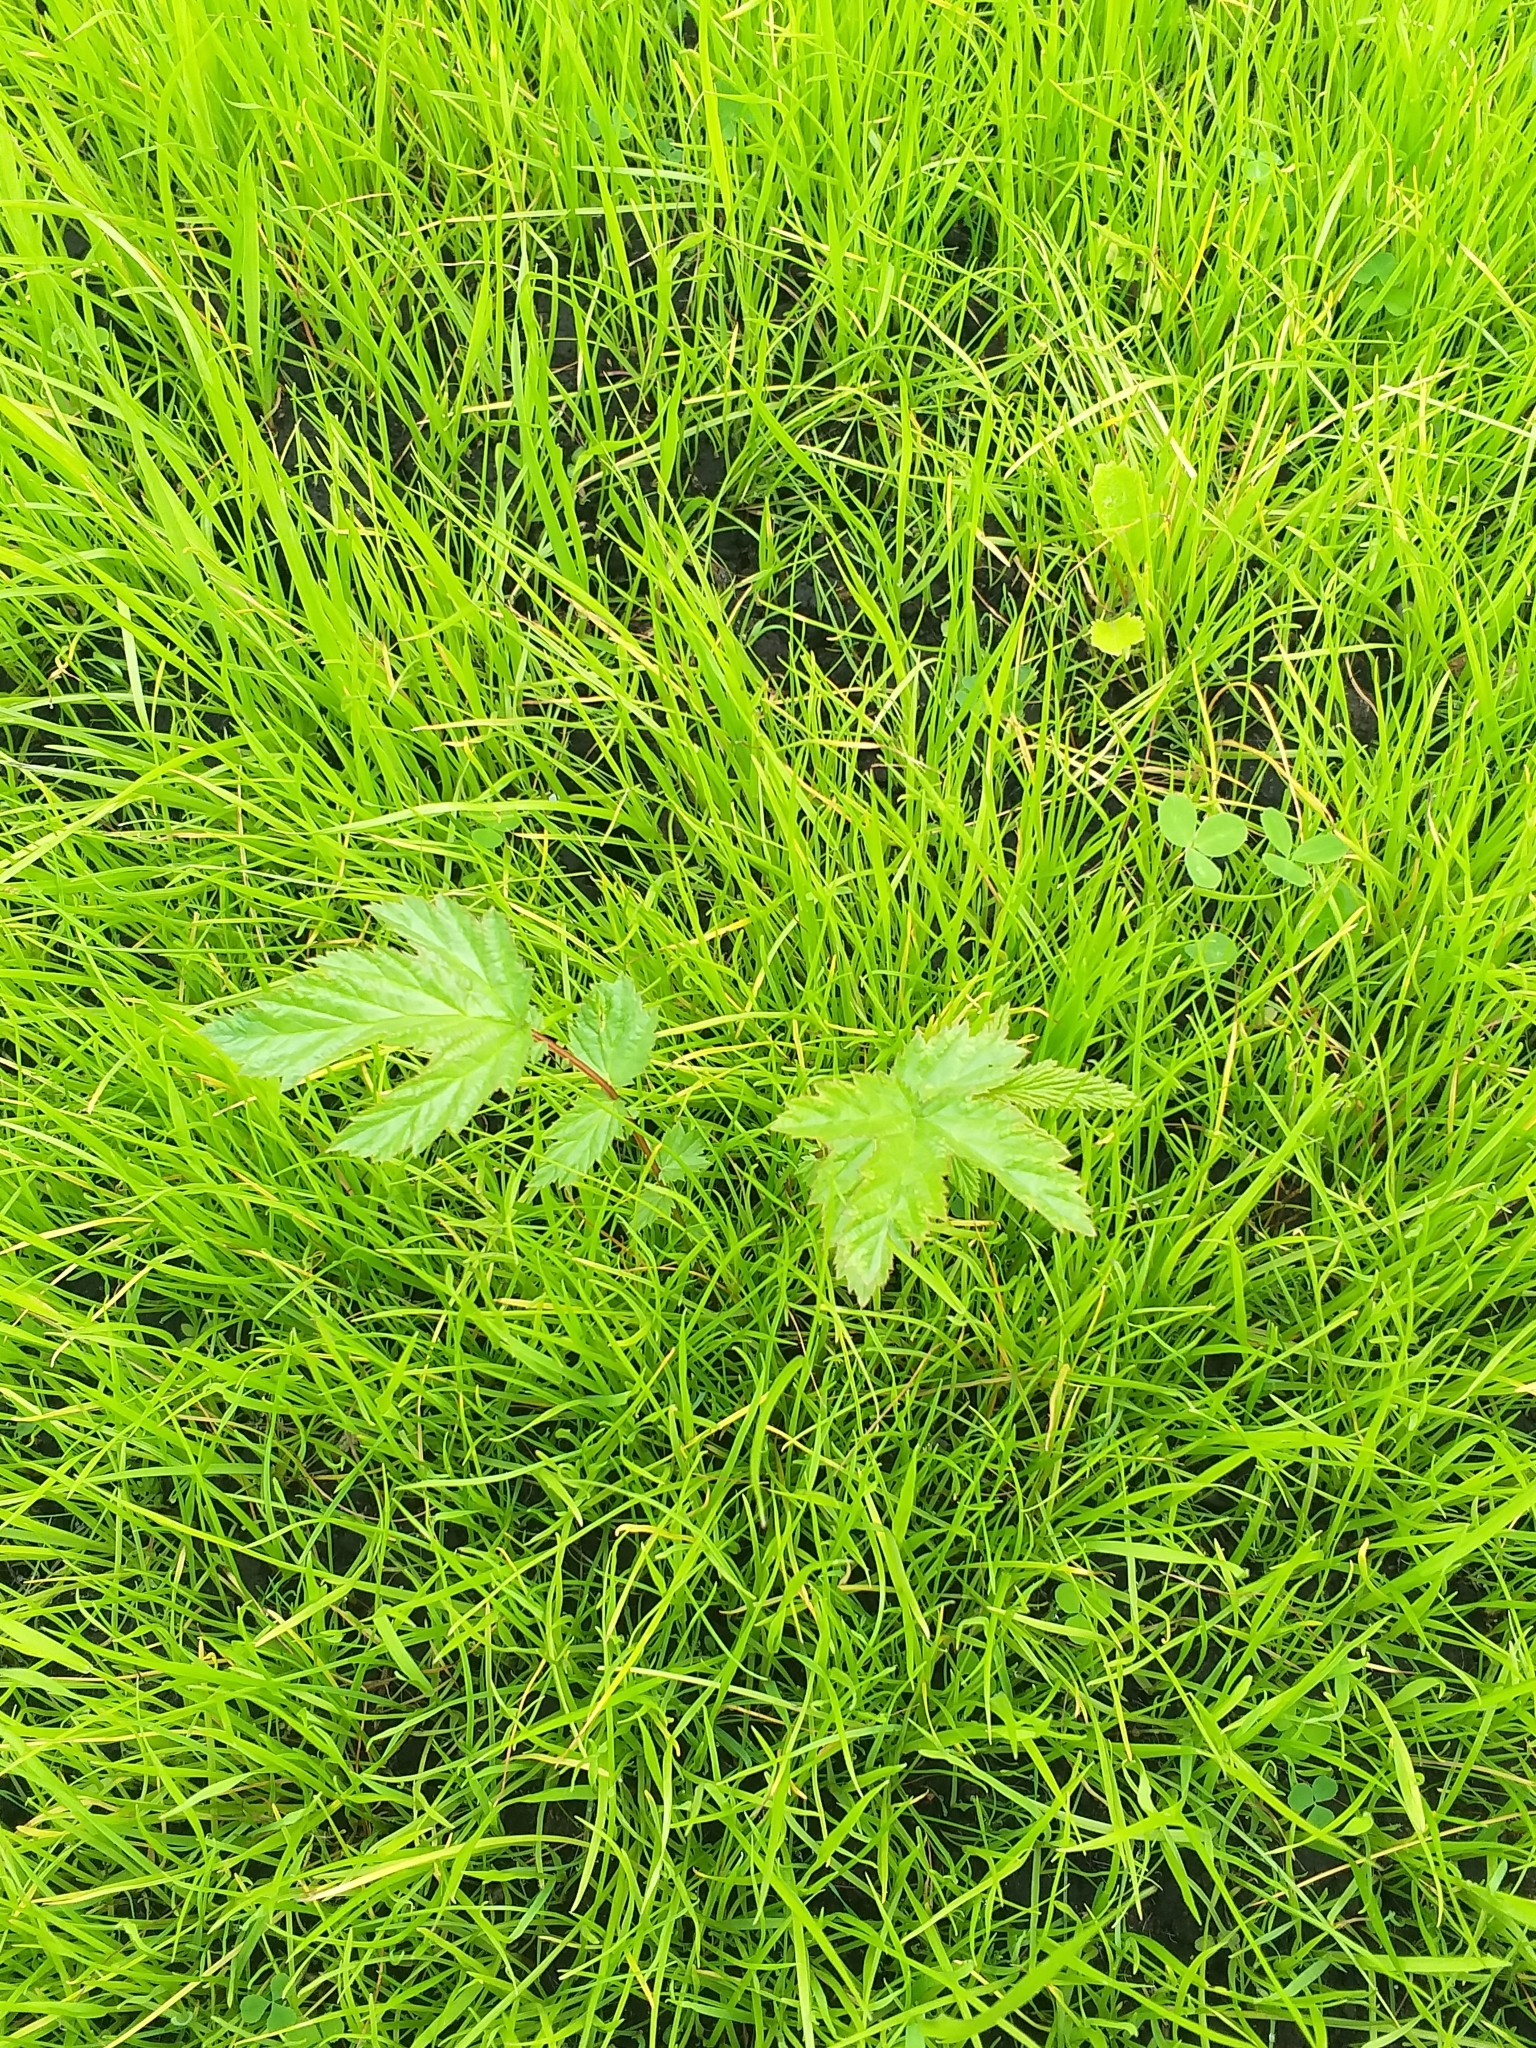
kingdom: Plantae
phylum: Tracheophyta
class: Magnoliopsida
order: Rosales
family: Rosaceae
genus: Filipendula
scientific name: Filipendula ulmaria
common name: Meadowsweet
